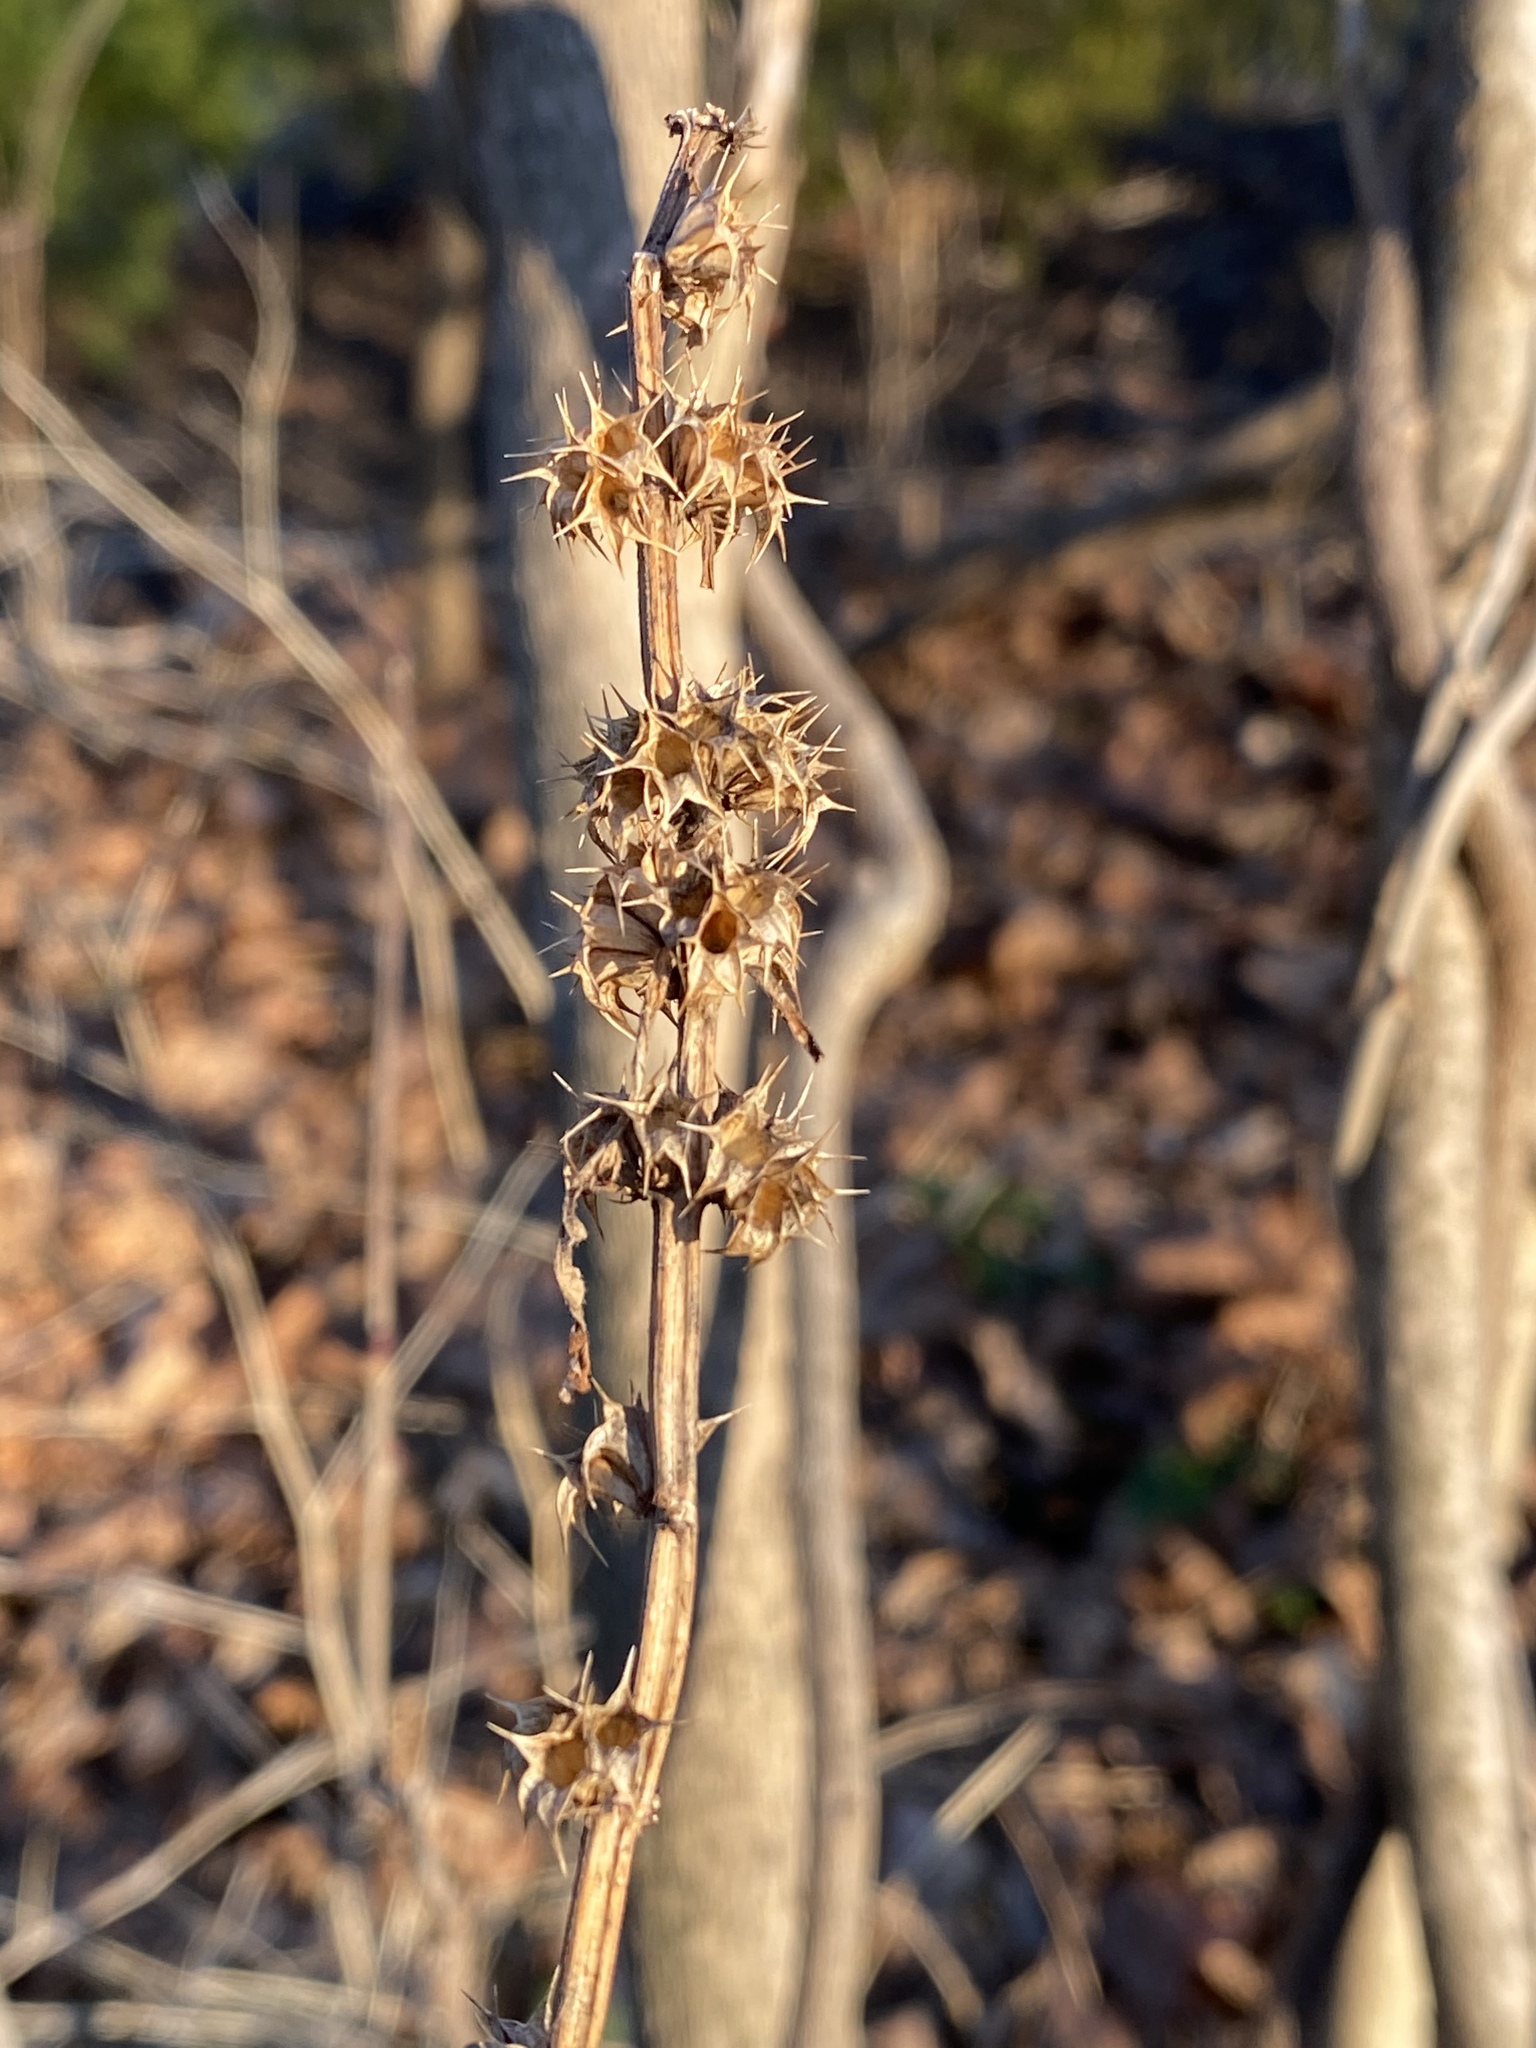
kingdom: Plantae
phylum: Tracheophyta
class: Magnoliopsida
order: Lamiales
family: Lamiaceae
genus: Leonurus
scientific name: Leonurus cardiaca
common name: Motherwort
